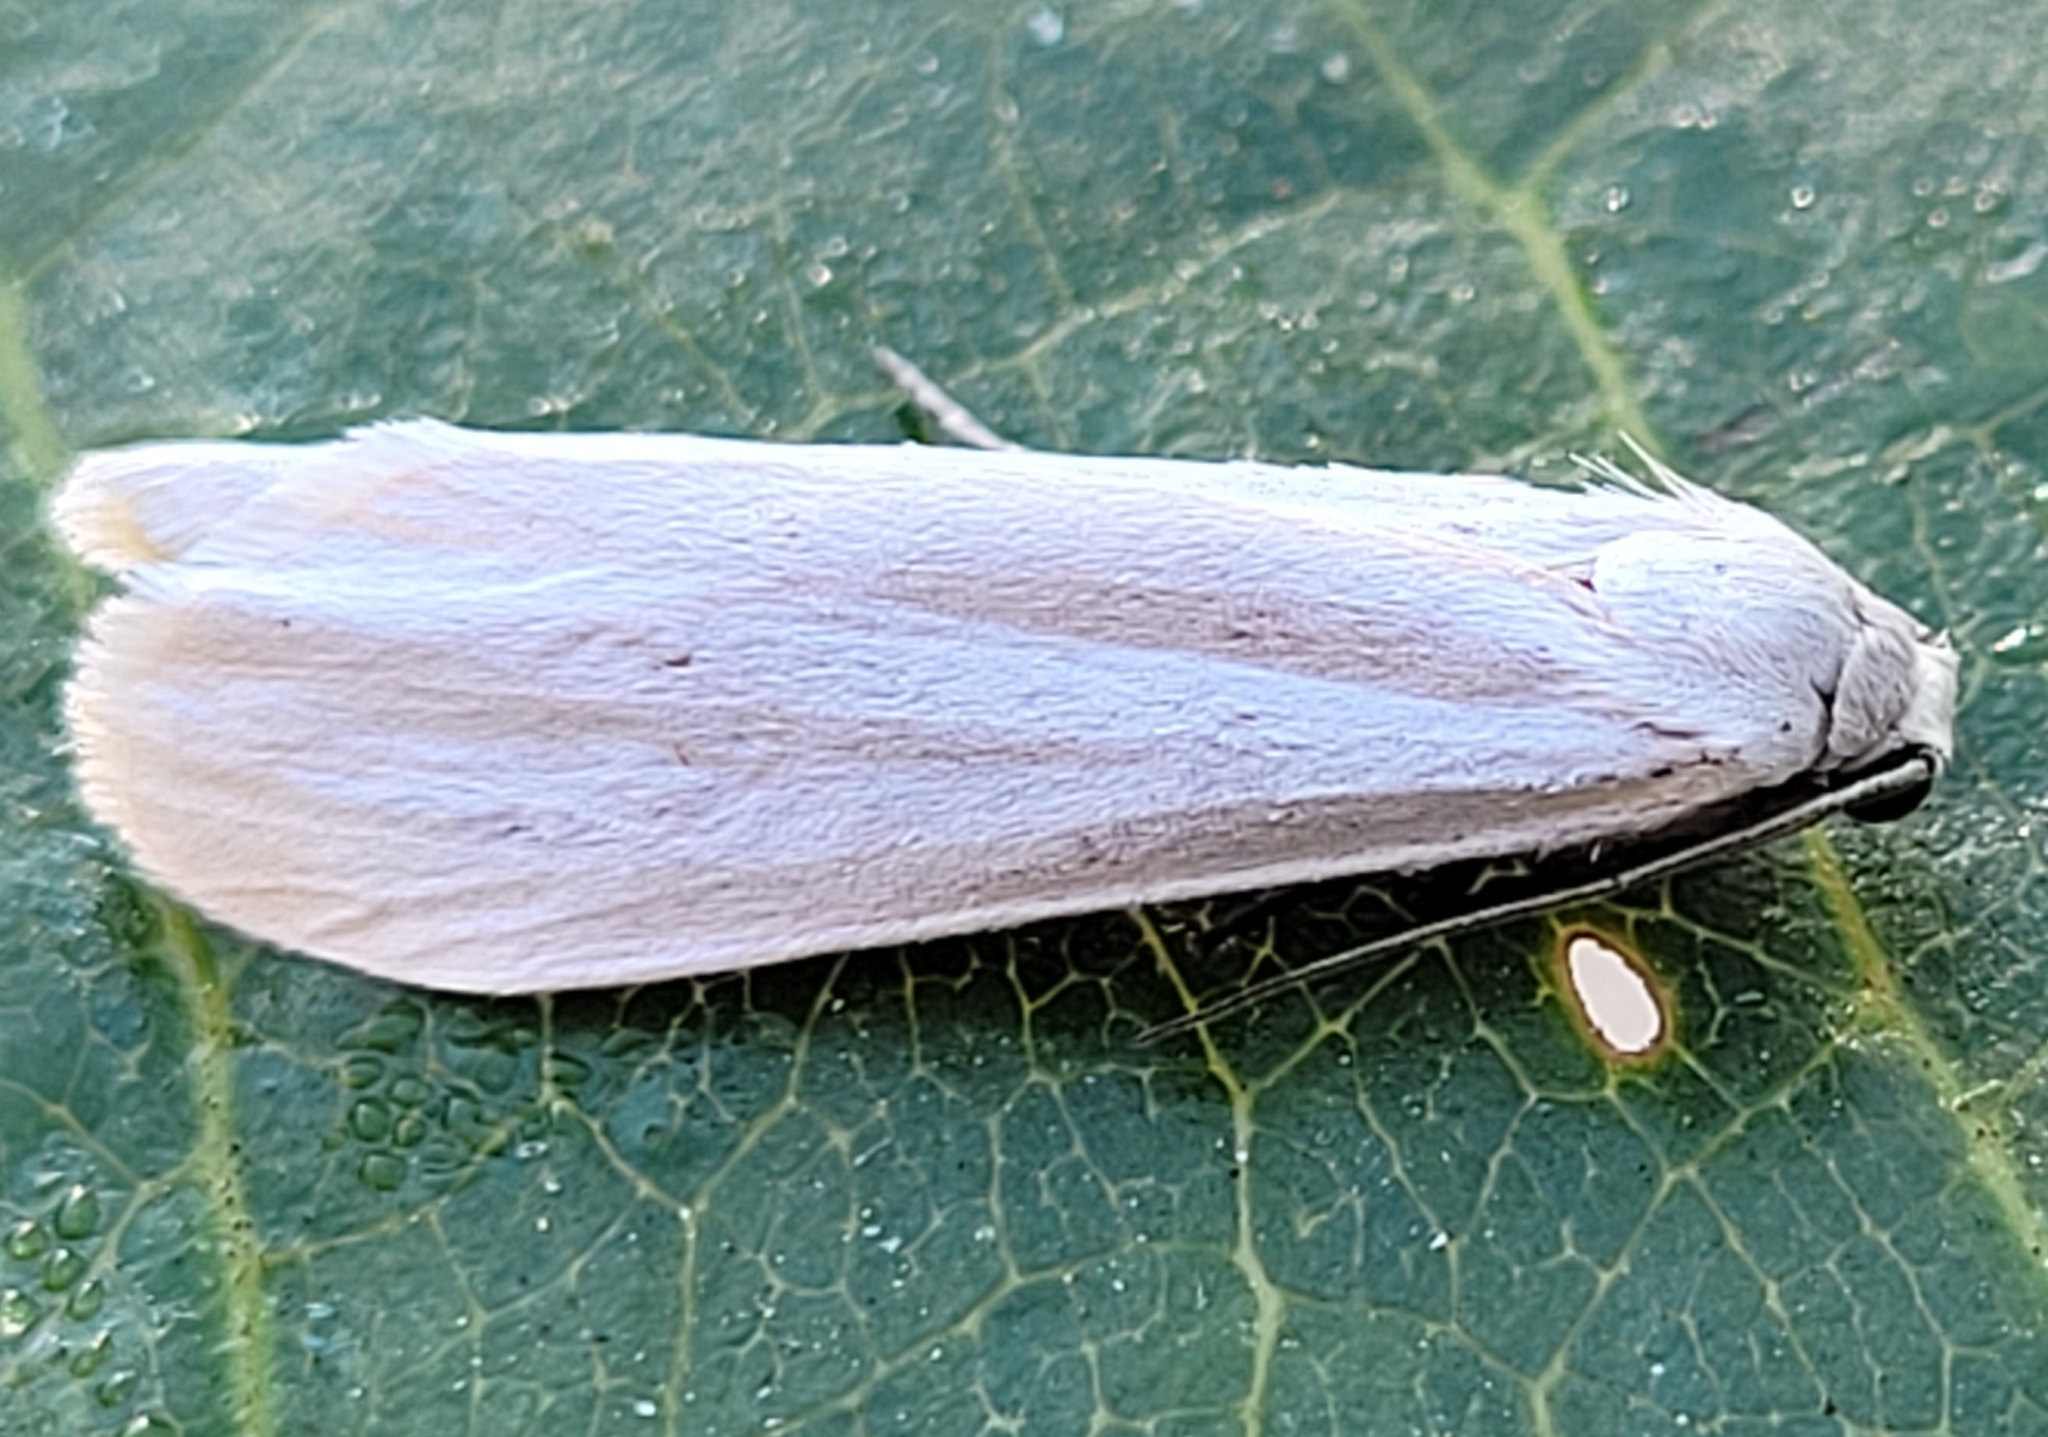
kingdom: Animalia
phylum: Arthropoda
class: Insecta
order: Lepidoptera
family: Erebidae
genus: Crambidia
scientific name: Crambidia casta
